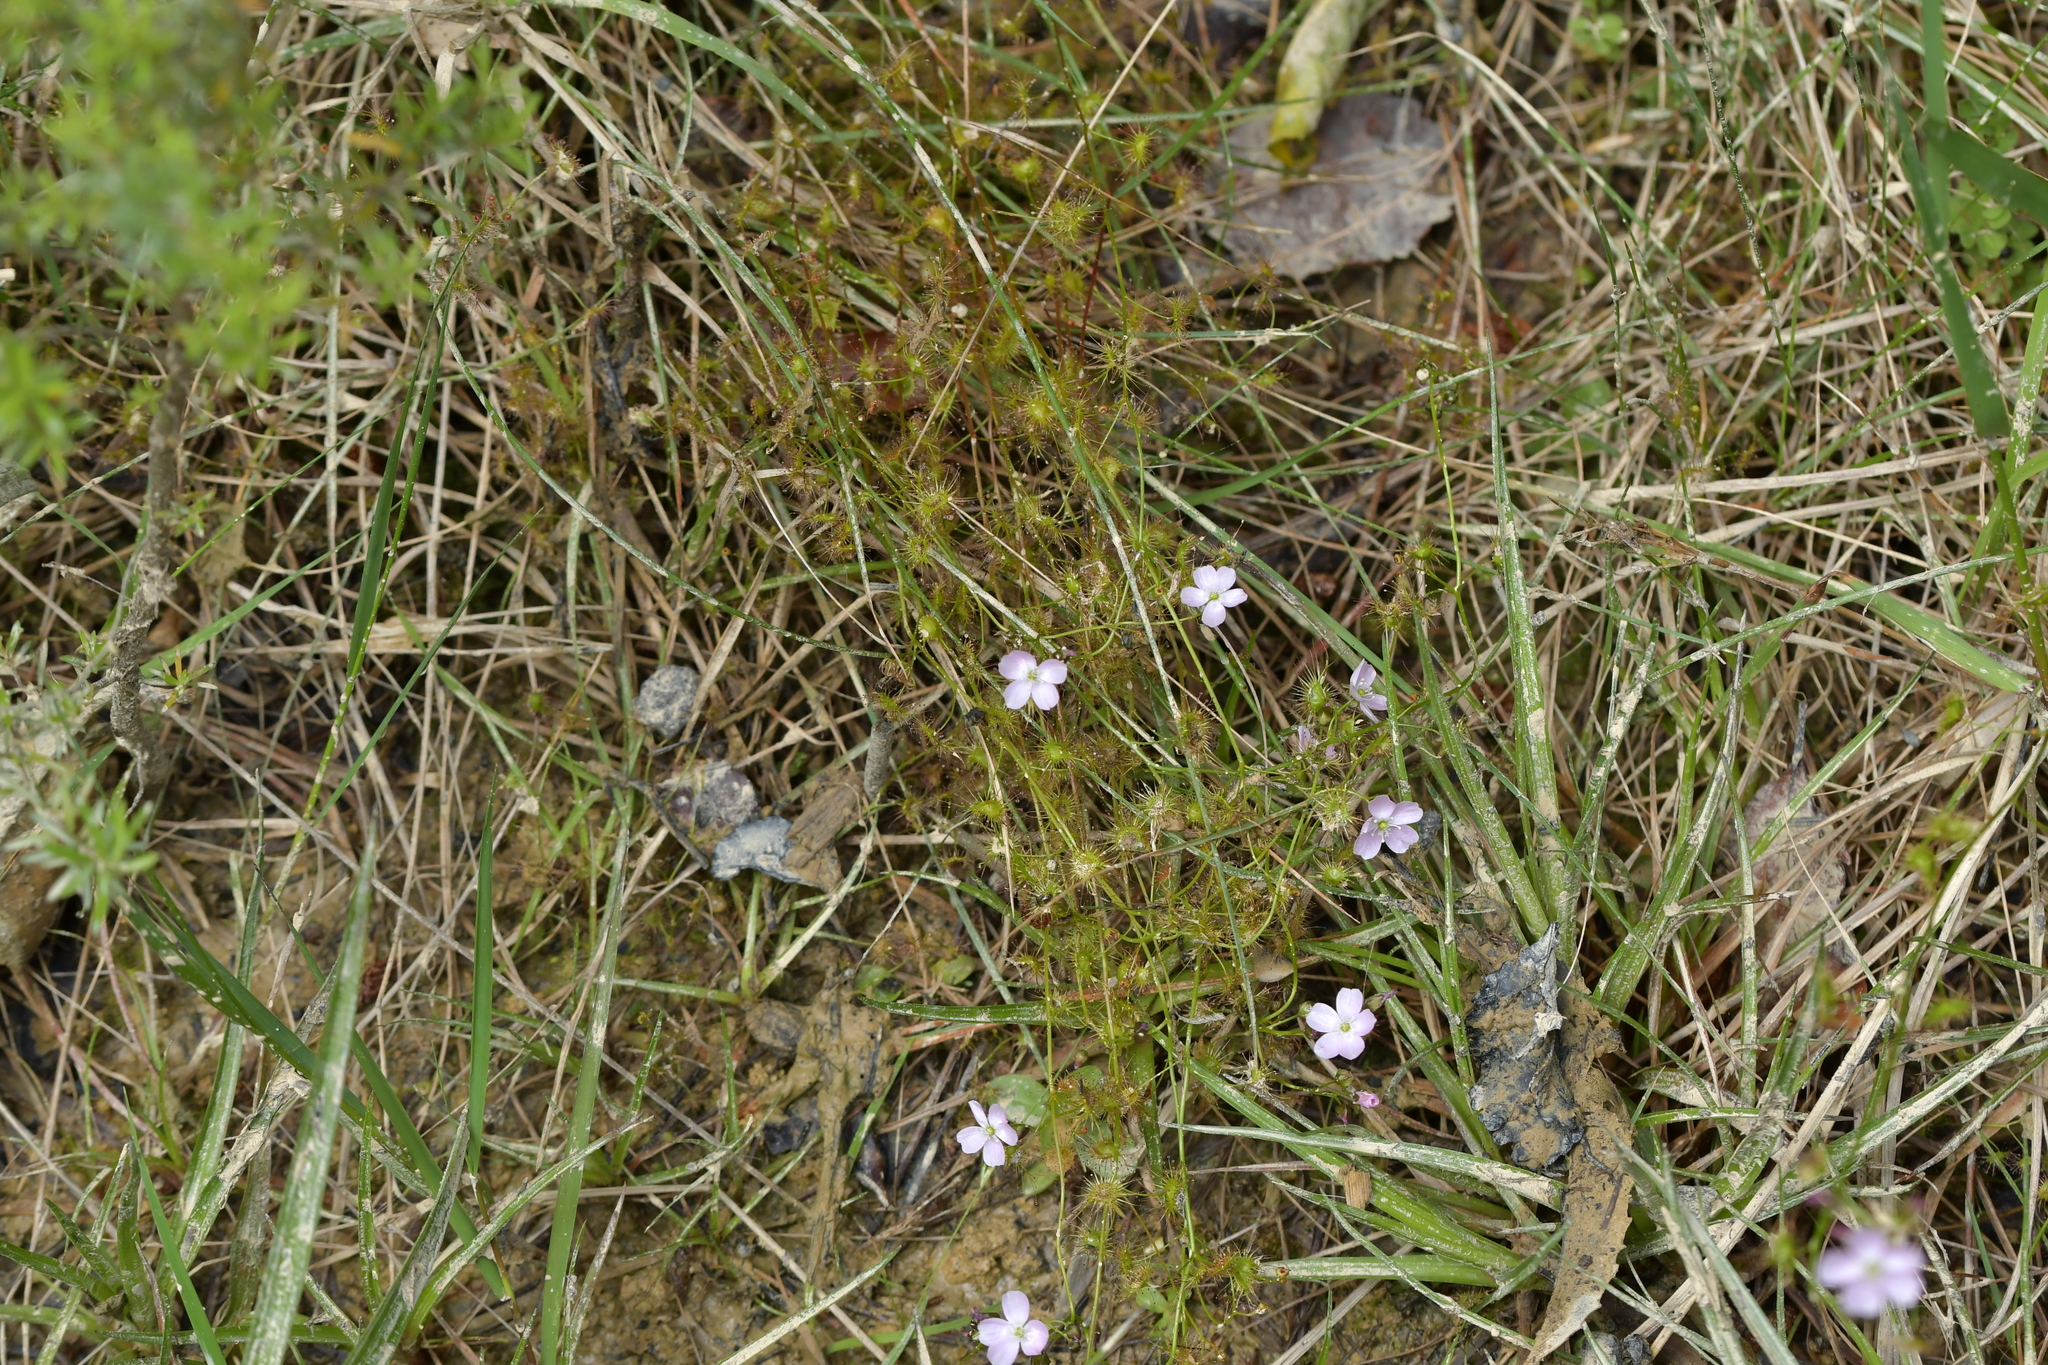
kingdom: Plantae
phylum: Tracheophyta
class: Magnoliopsida
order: Caryophyllales
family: Droseraceae
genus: Drosera
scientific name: Drosera peltata
